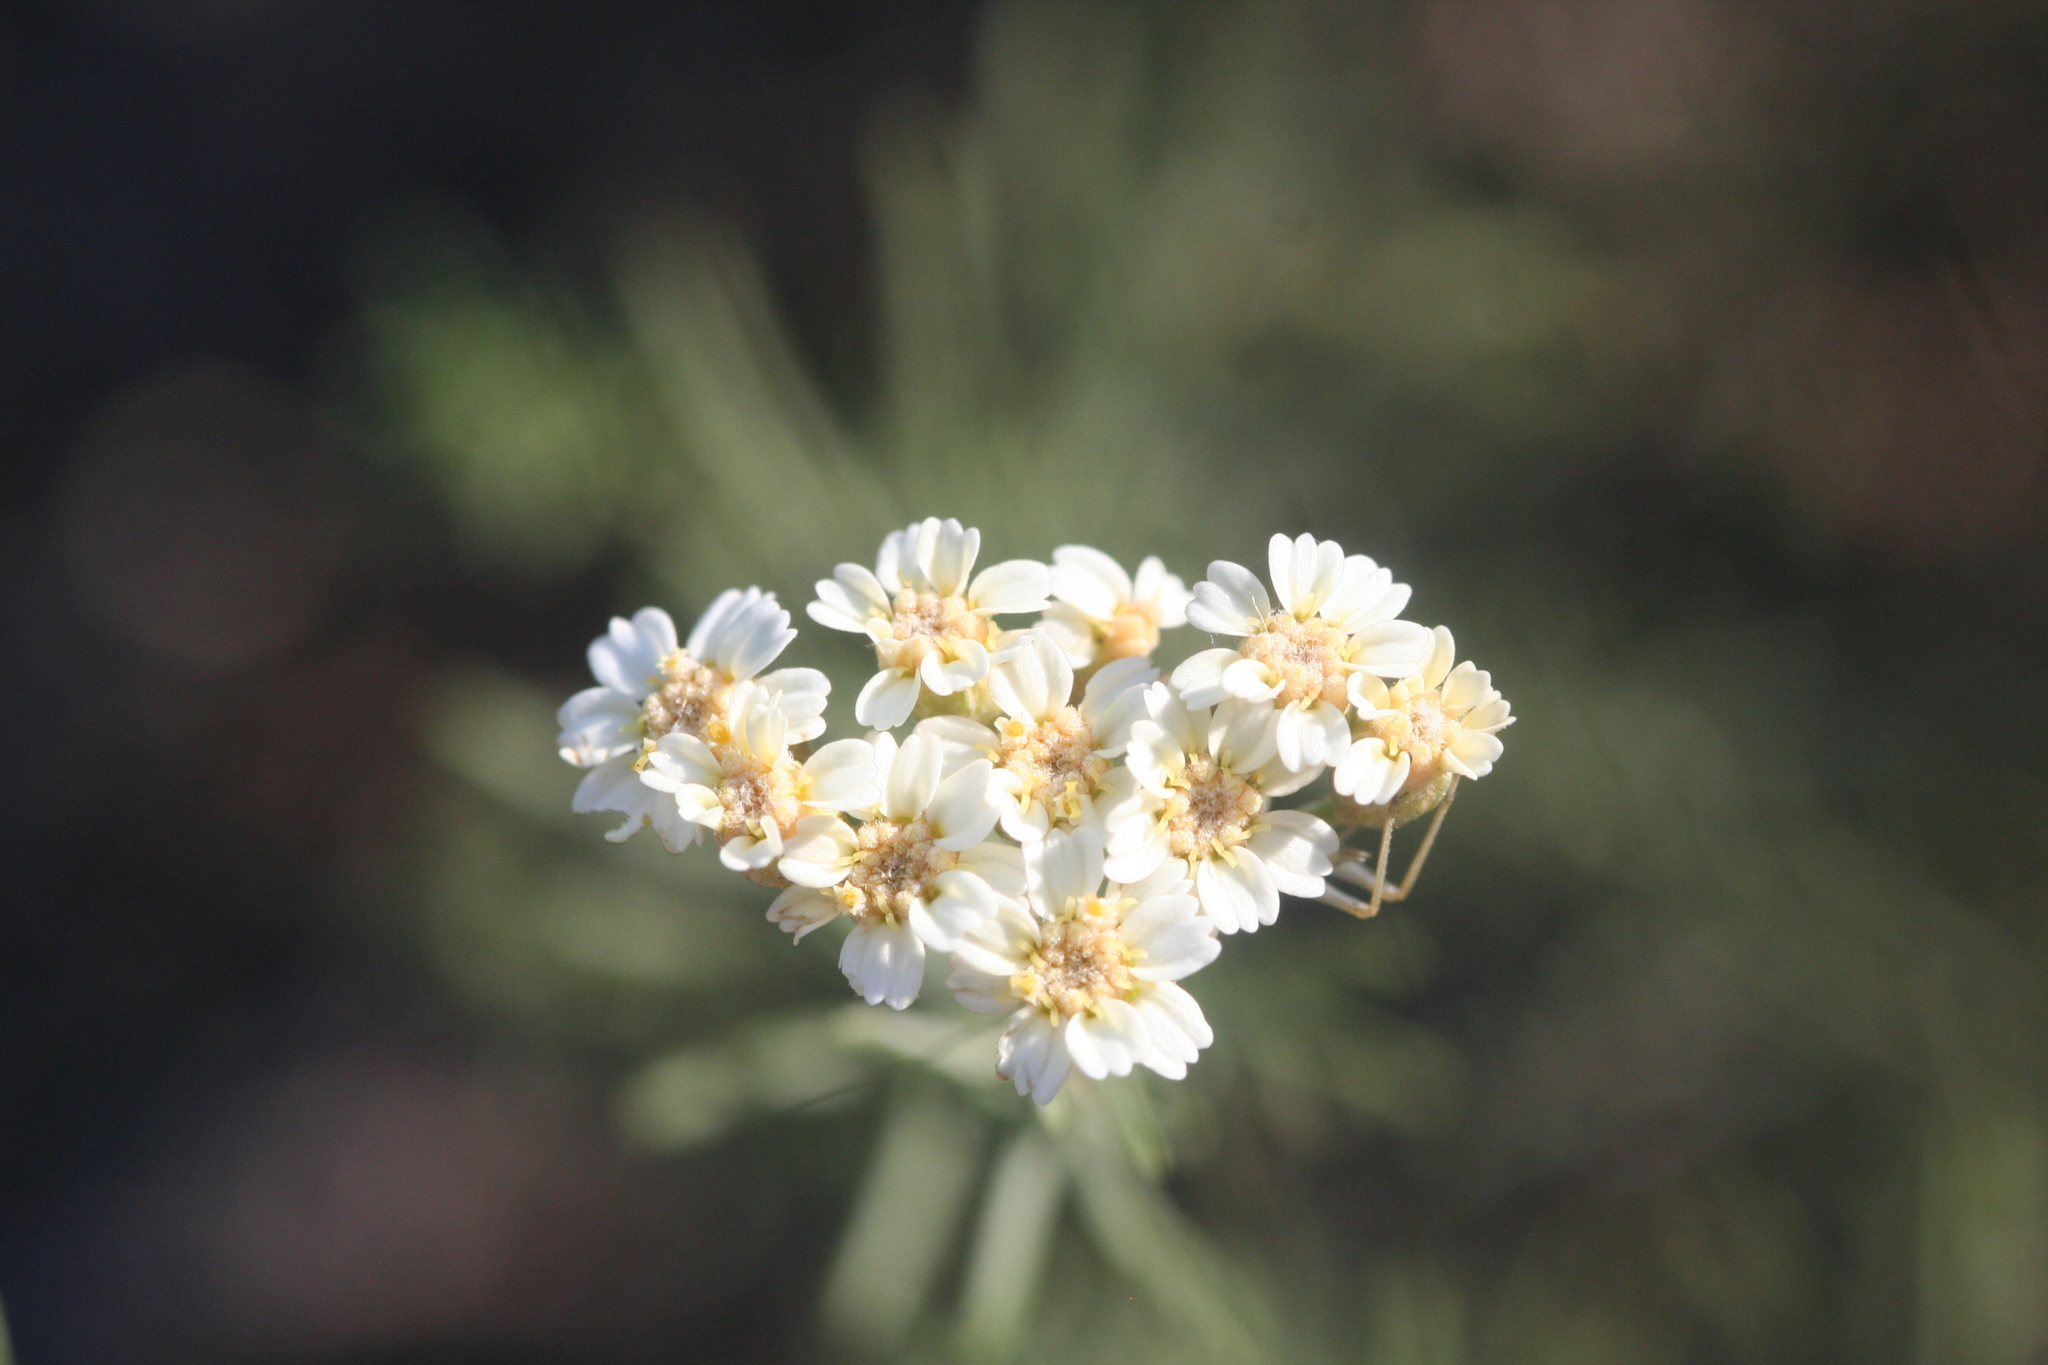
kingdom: Plantae
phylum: Tracheophyta
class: Magnoliopsida
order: Asterales
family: Asteraceae
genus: Achillea
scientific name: Achillea teretifolia
